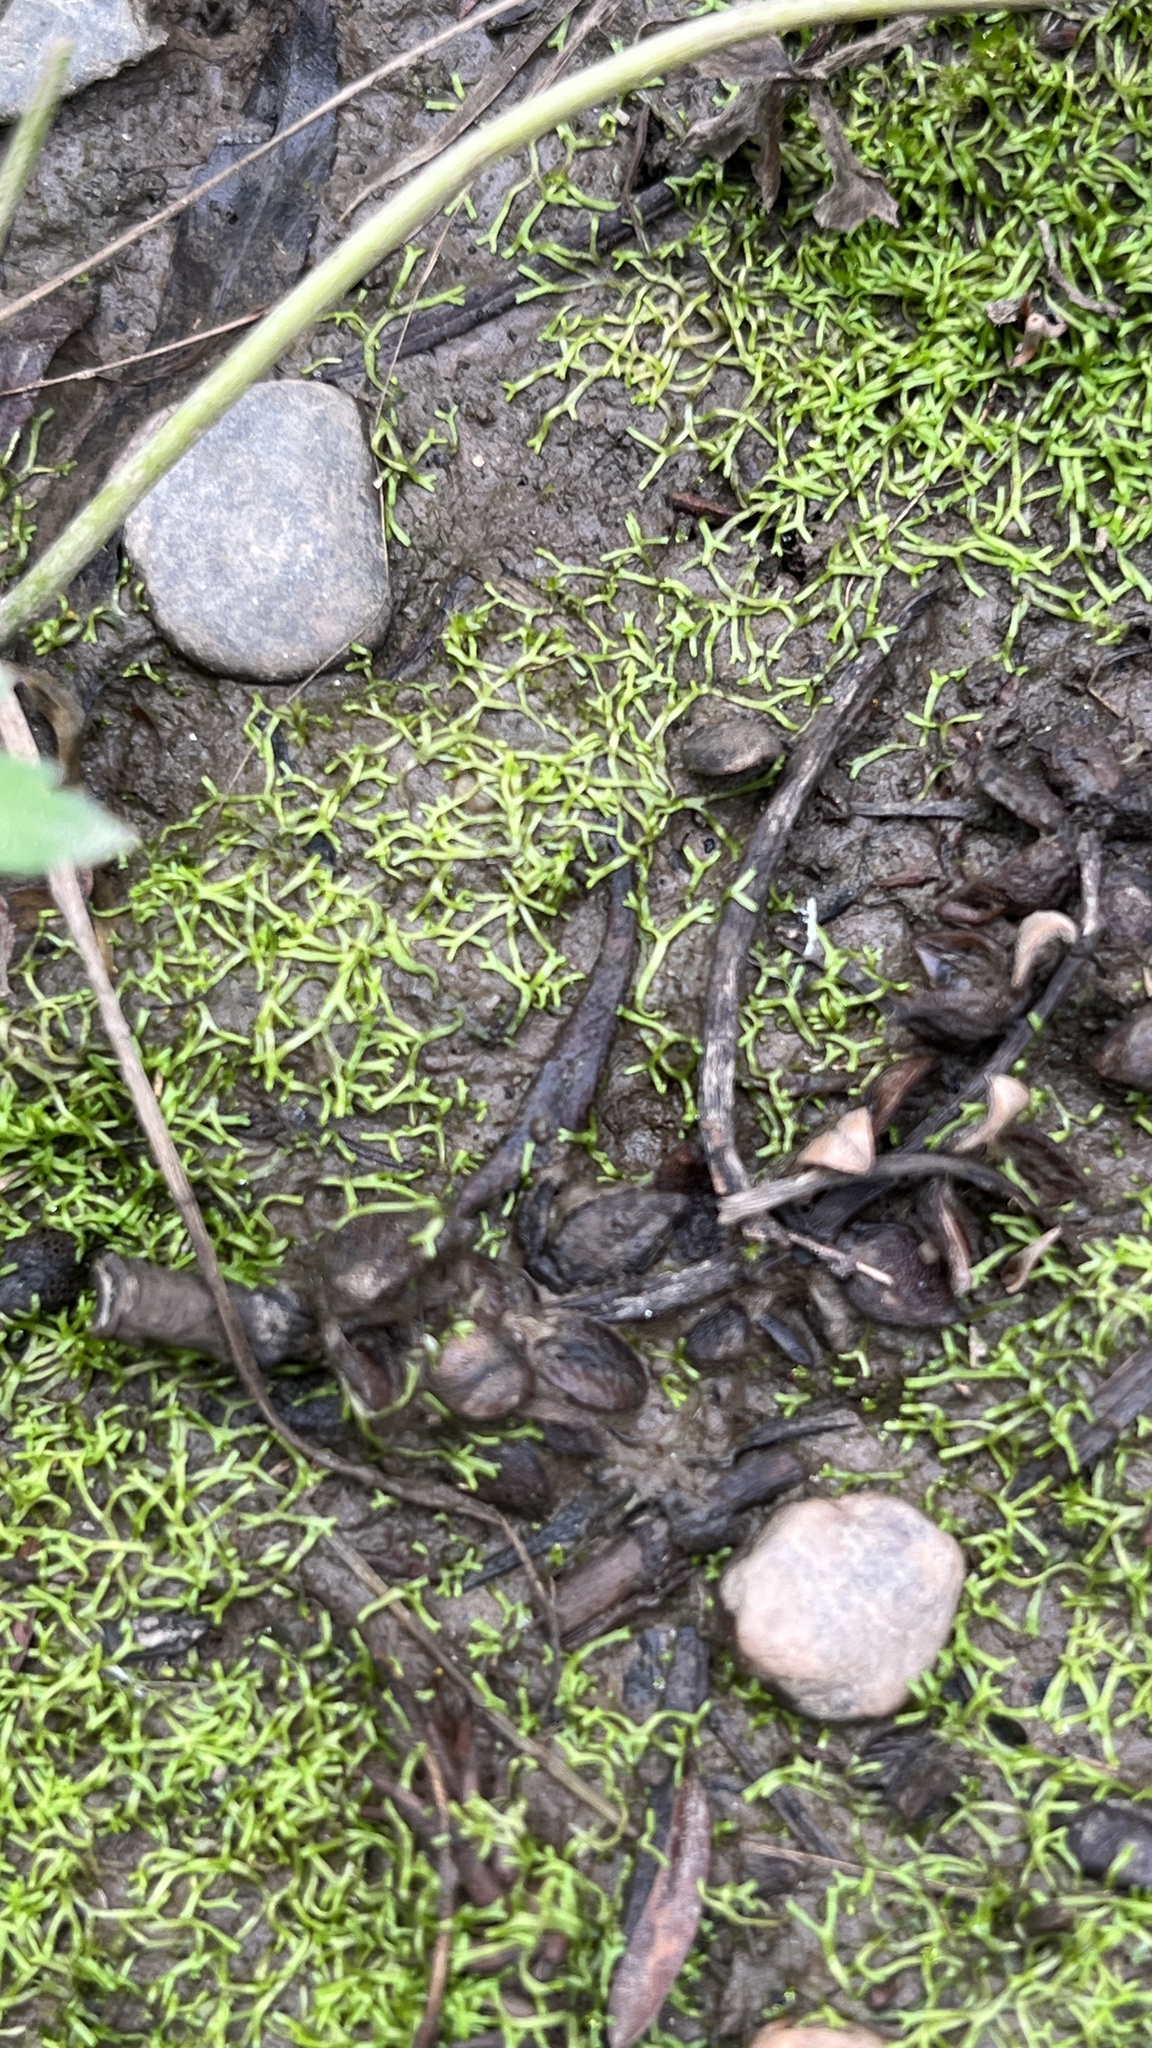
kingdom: Plantae
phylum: Marchantiophyta
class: Marchantiopsida
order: Marchantiales
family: Ricciaceae
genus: Riccia
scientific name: Riccia fluitans
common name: Floating crystalwort
